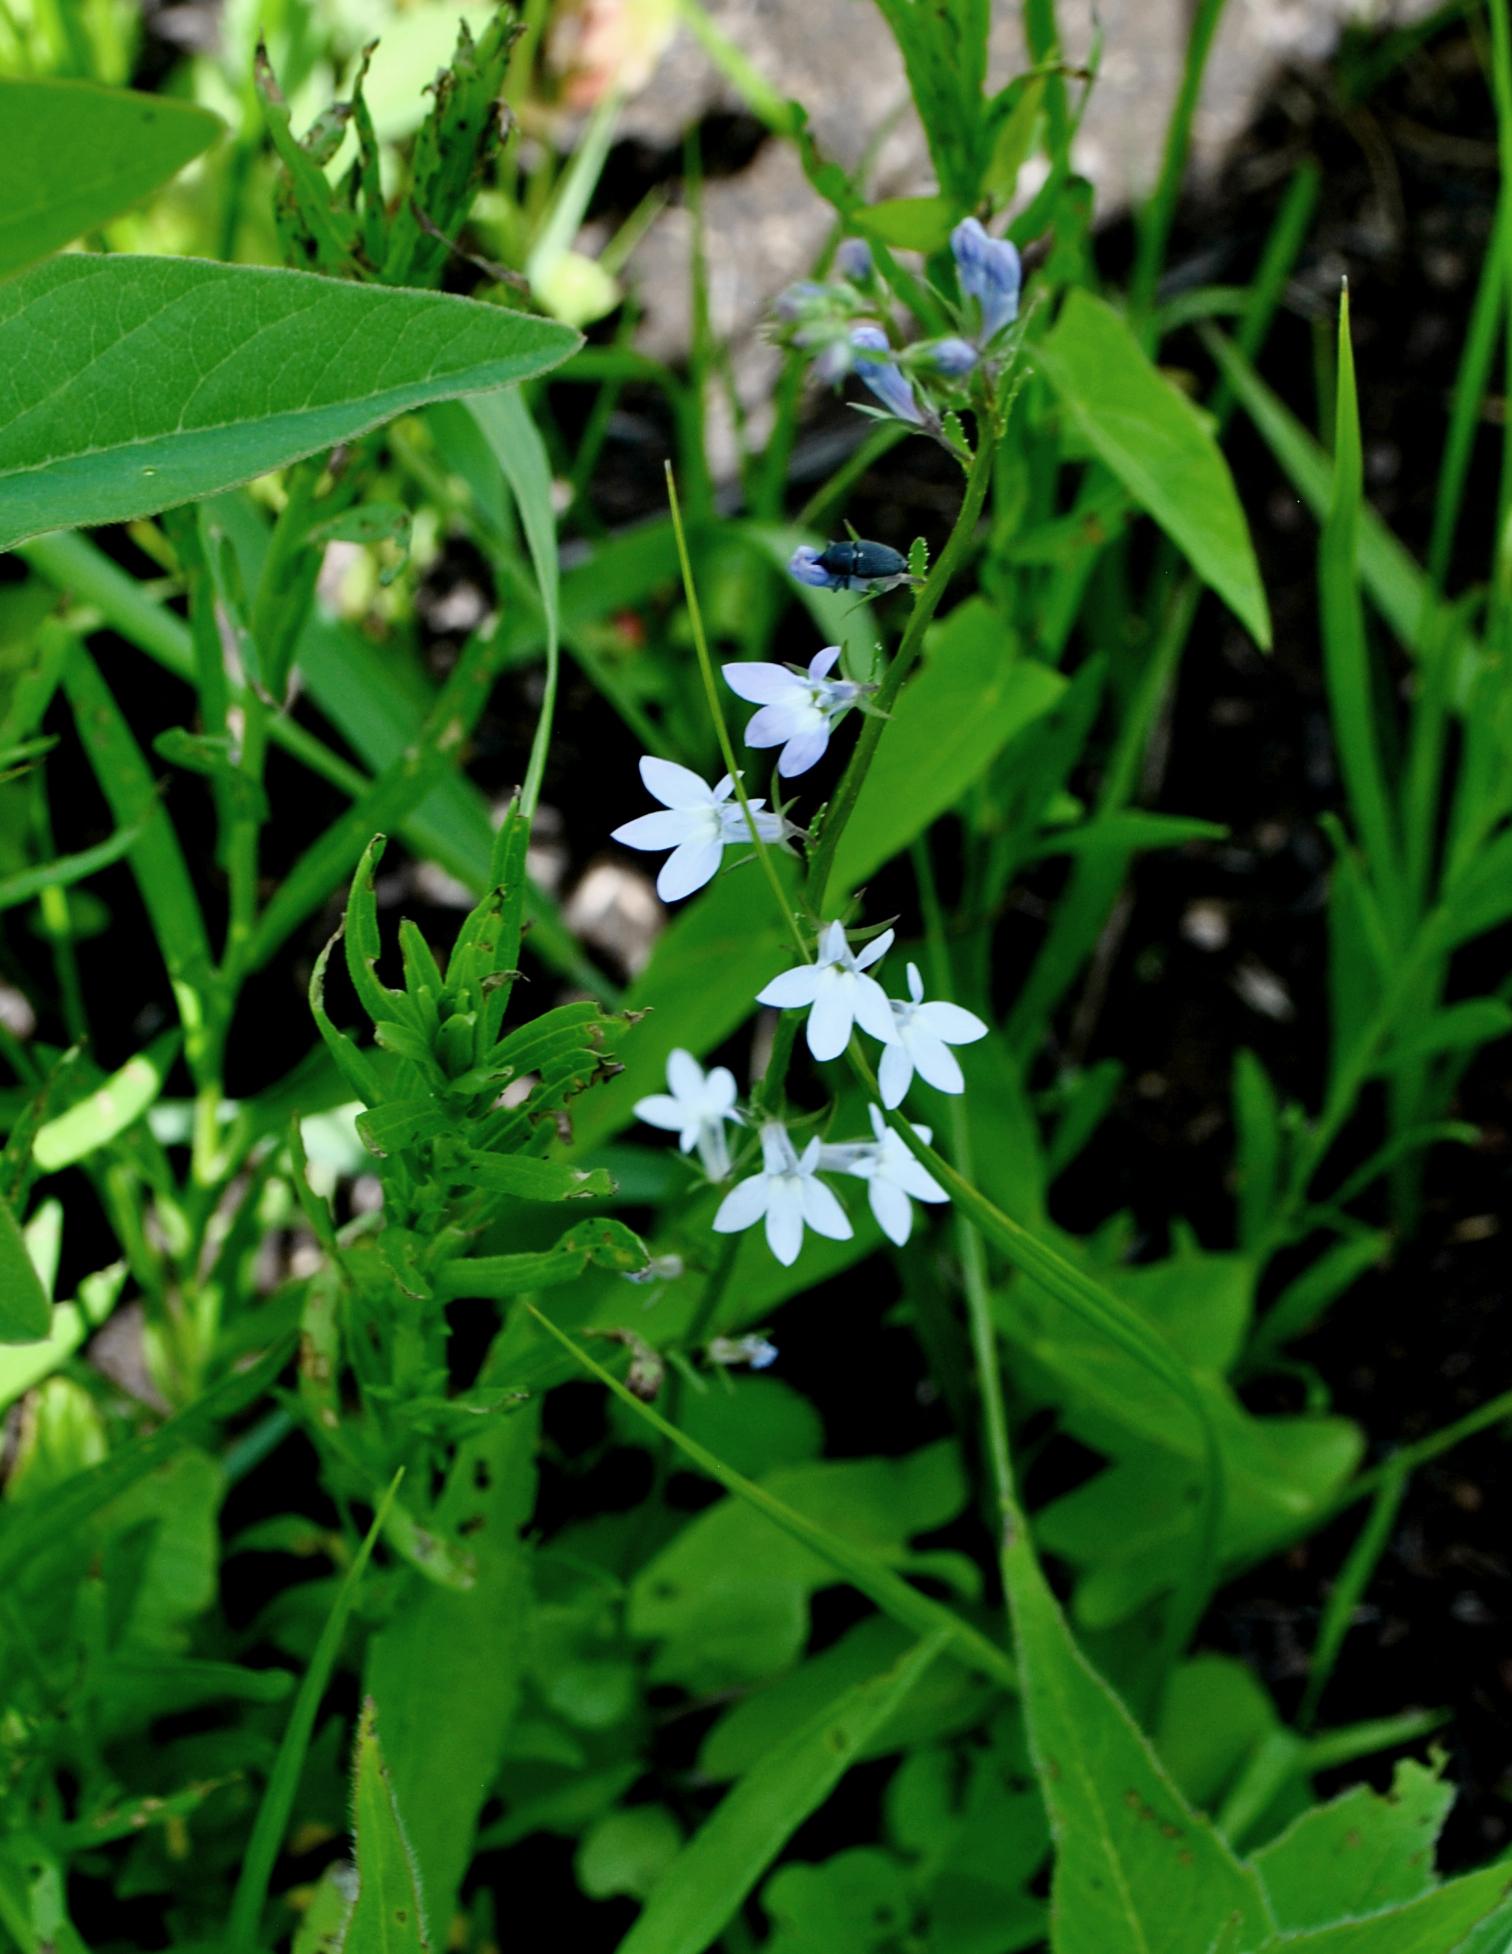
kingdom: Plantae
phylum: Tracheophyta
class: Magnoliopsida
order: Asterales
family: Campanulaceae
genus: Lobelia
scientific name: Lobelia spicata
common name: Pale-spike lobelia
